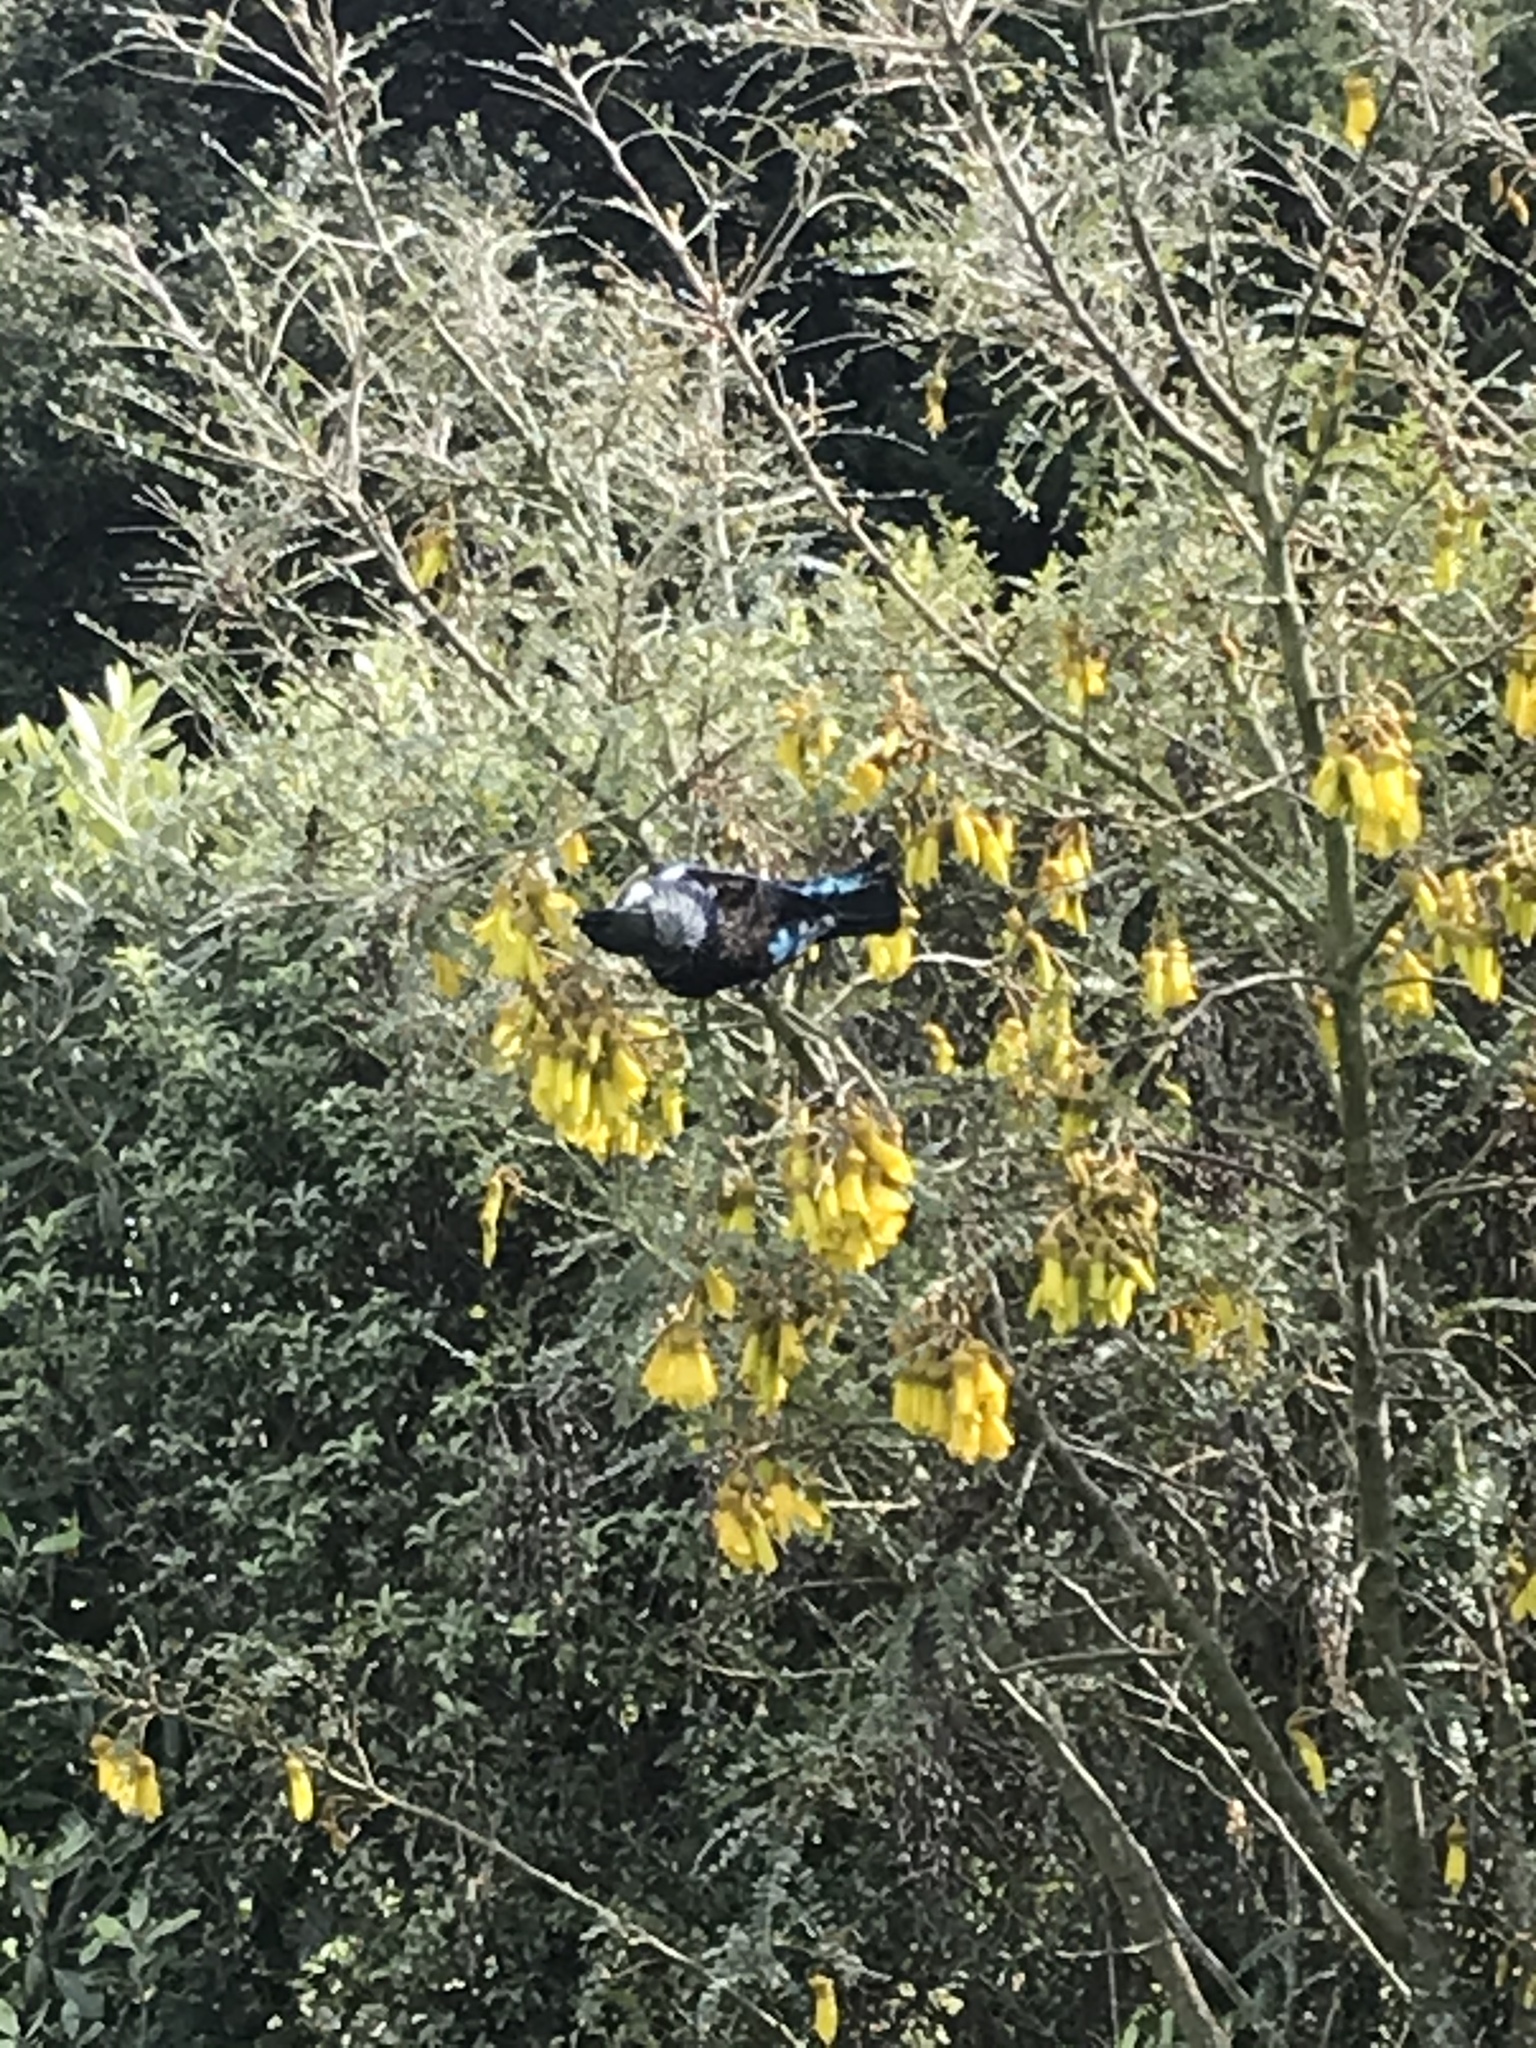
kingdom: Animalia
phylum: Chordata
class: Aves
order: Passeriformes
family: Meliphagidae
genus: Prosthemadera
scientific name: Prosthemadera novaeseelandiae
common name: Tui
